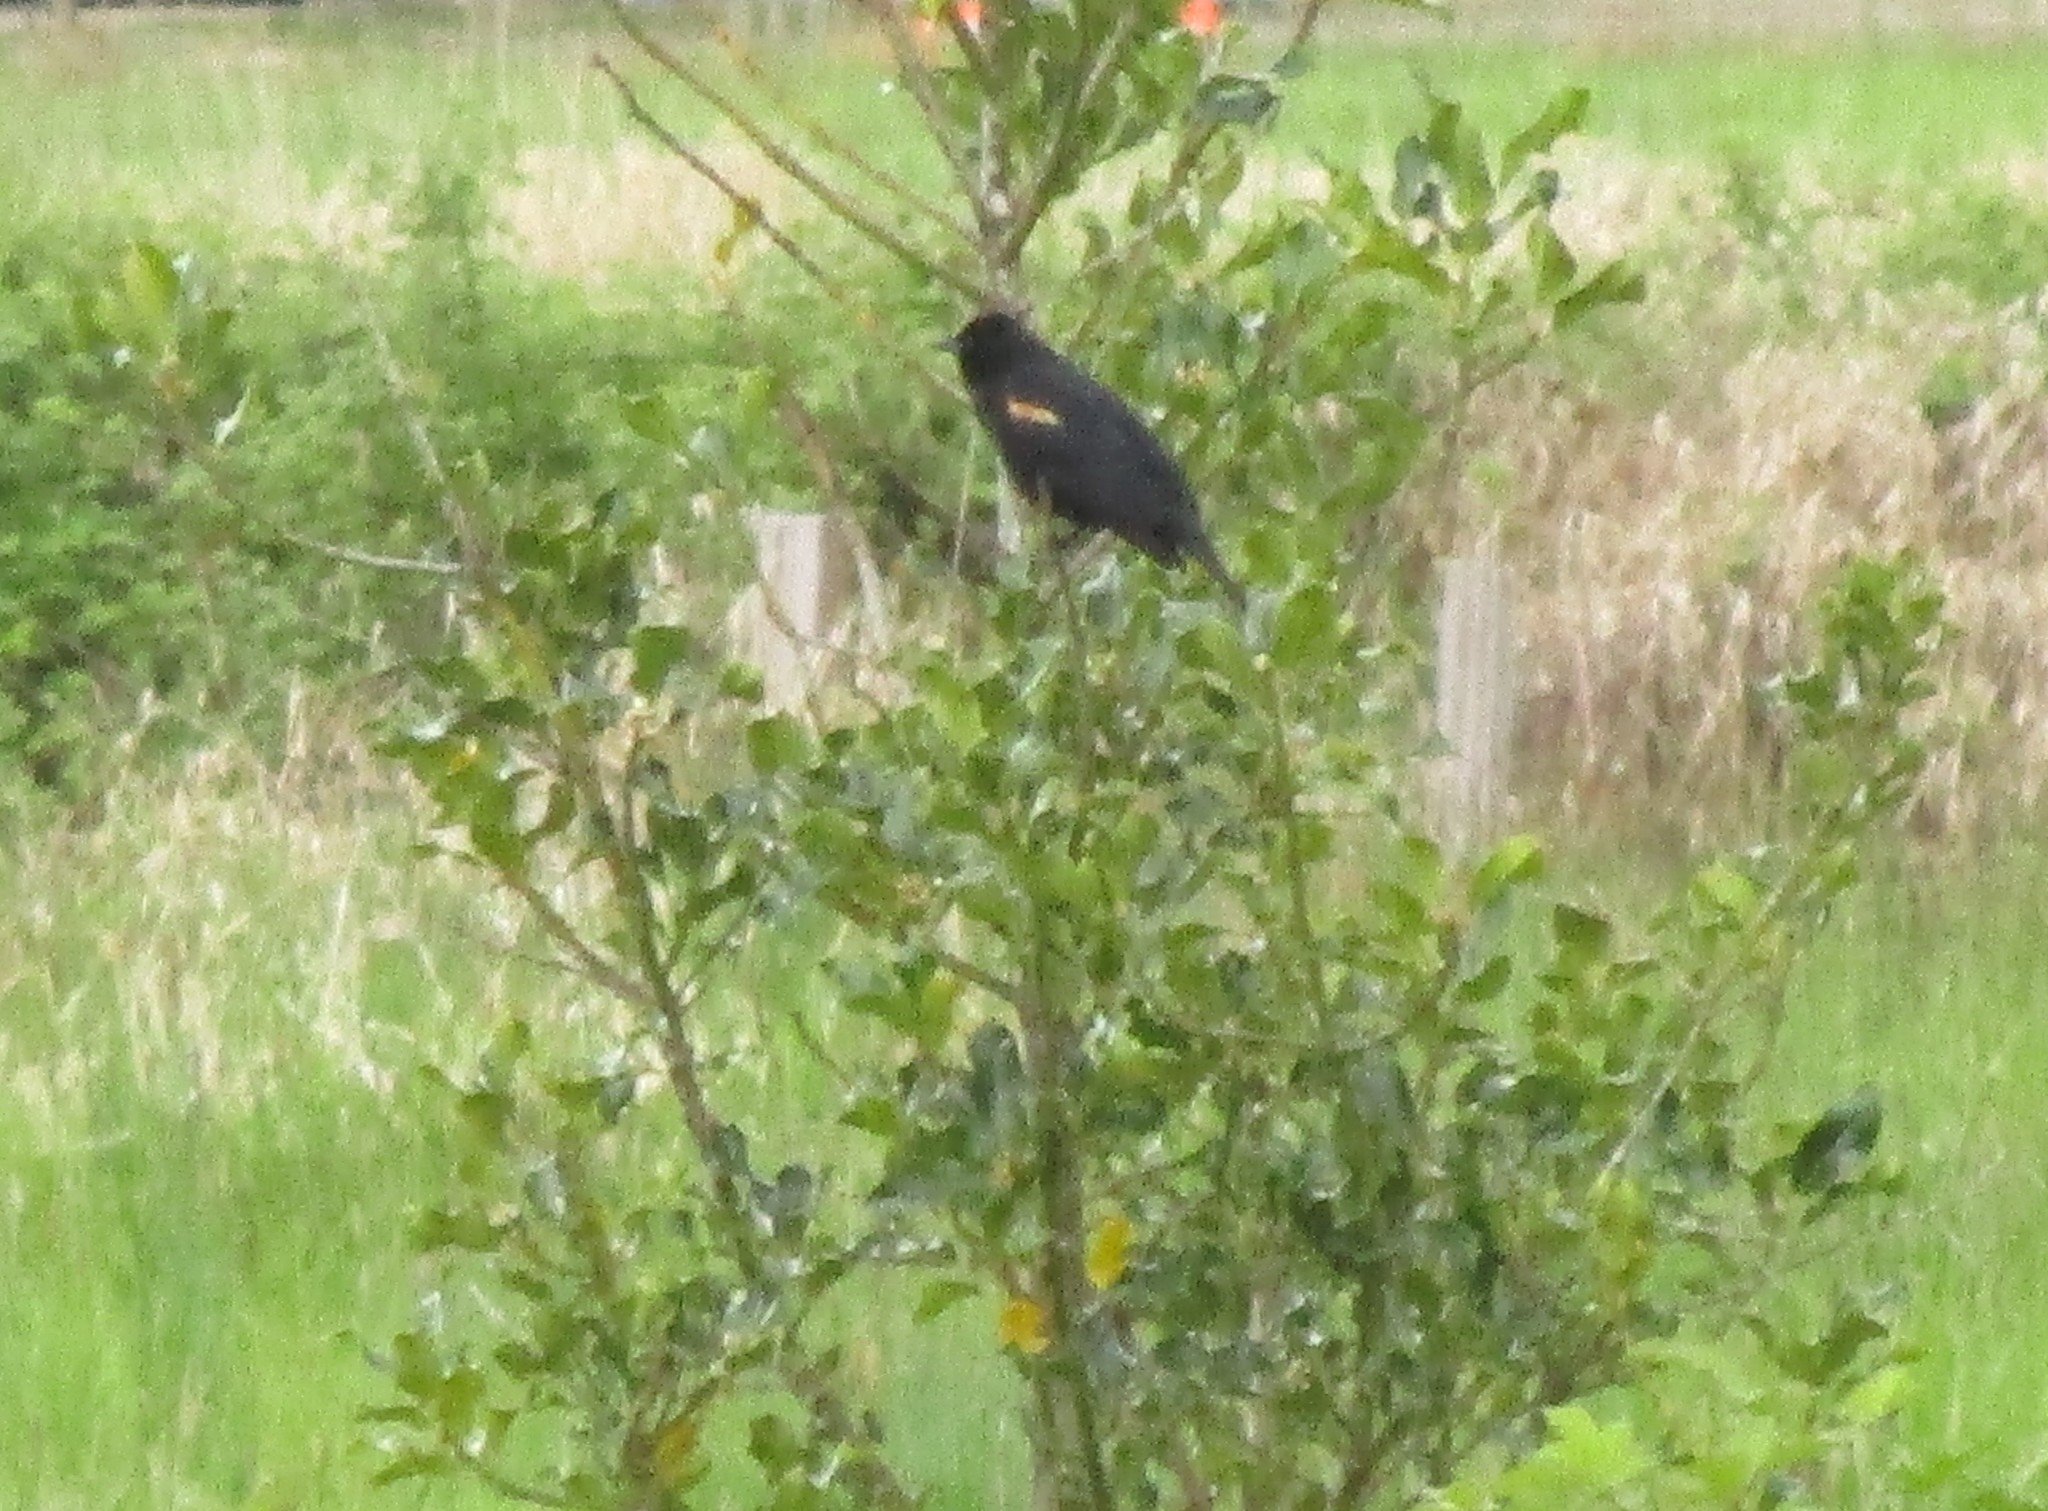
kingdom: Animalia
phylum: Chordata
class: Aves
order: Passeriformes
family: Icteridae
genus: Agelaius
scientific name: Agelaius phoeniceus
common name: Red-winged blackbird
